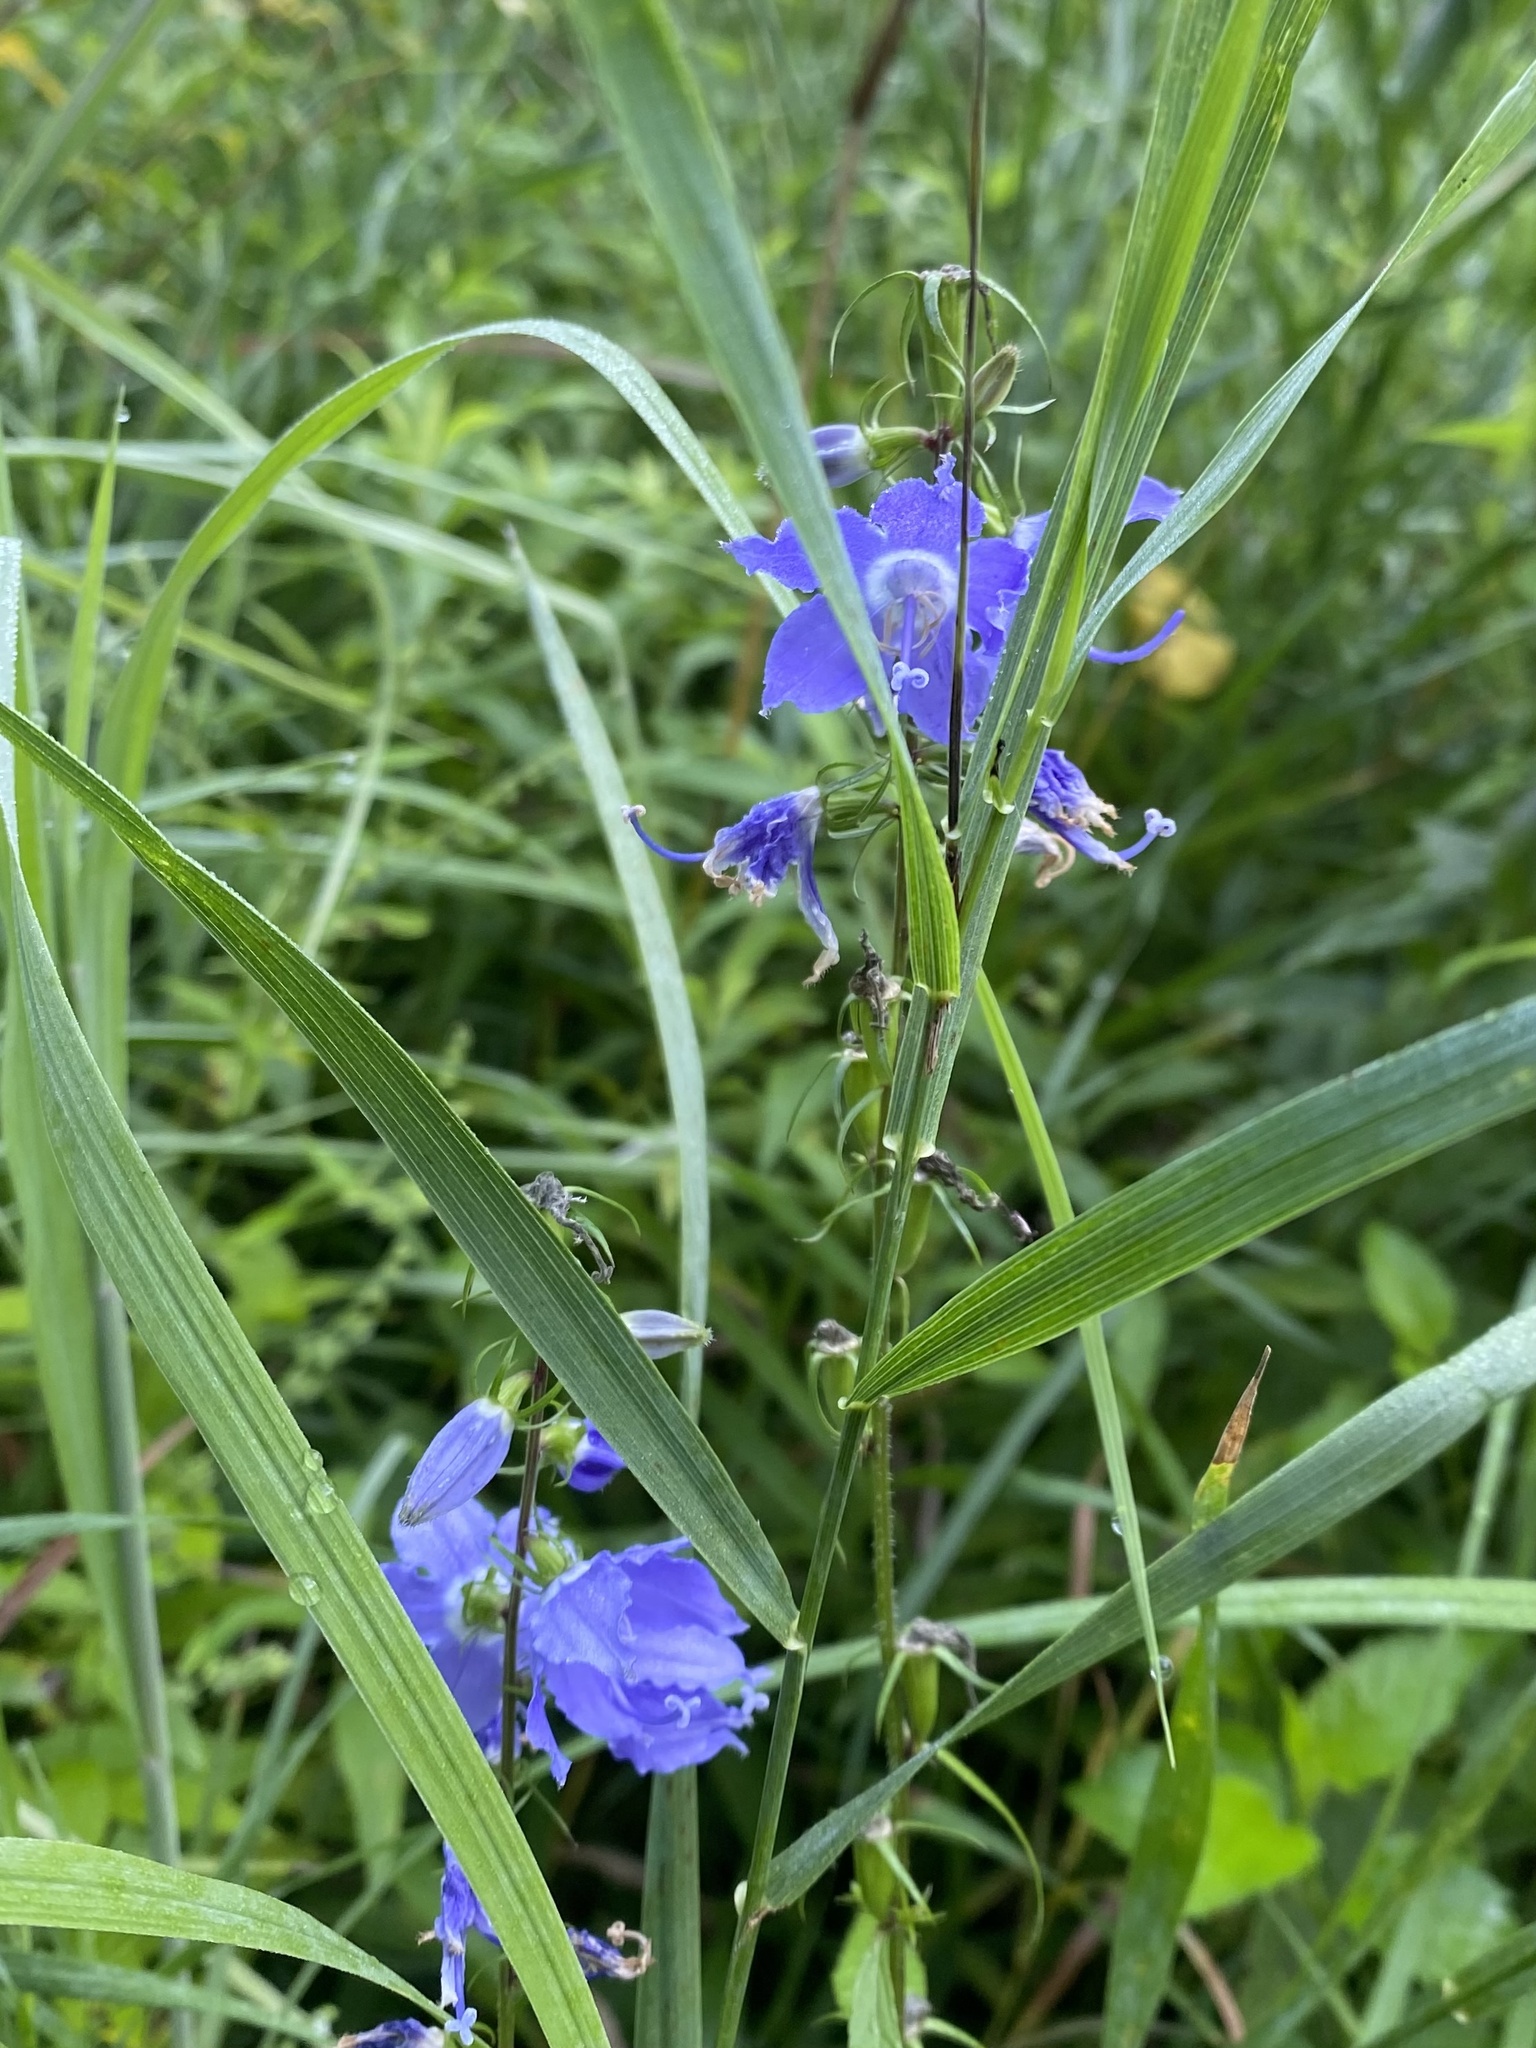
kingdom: Plantae
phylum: Tracheophyta
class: Magnoliopsida
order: Asterales
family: Campanulaceae
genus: Campanulastrum
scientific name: Campanulastrum americanum
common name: American bellflower
